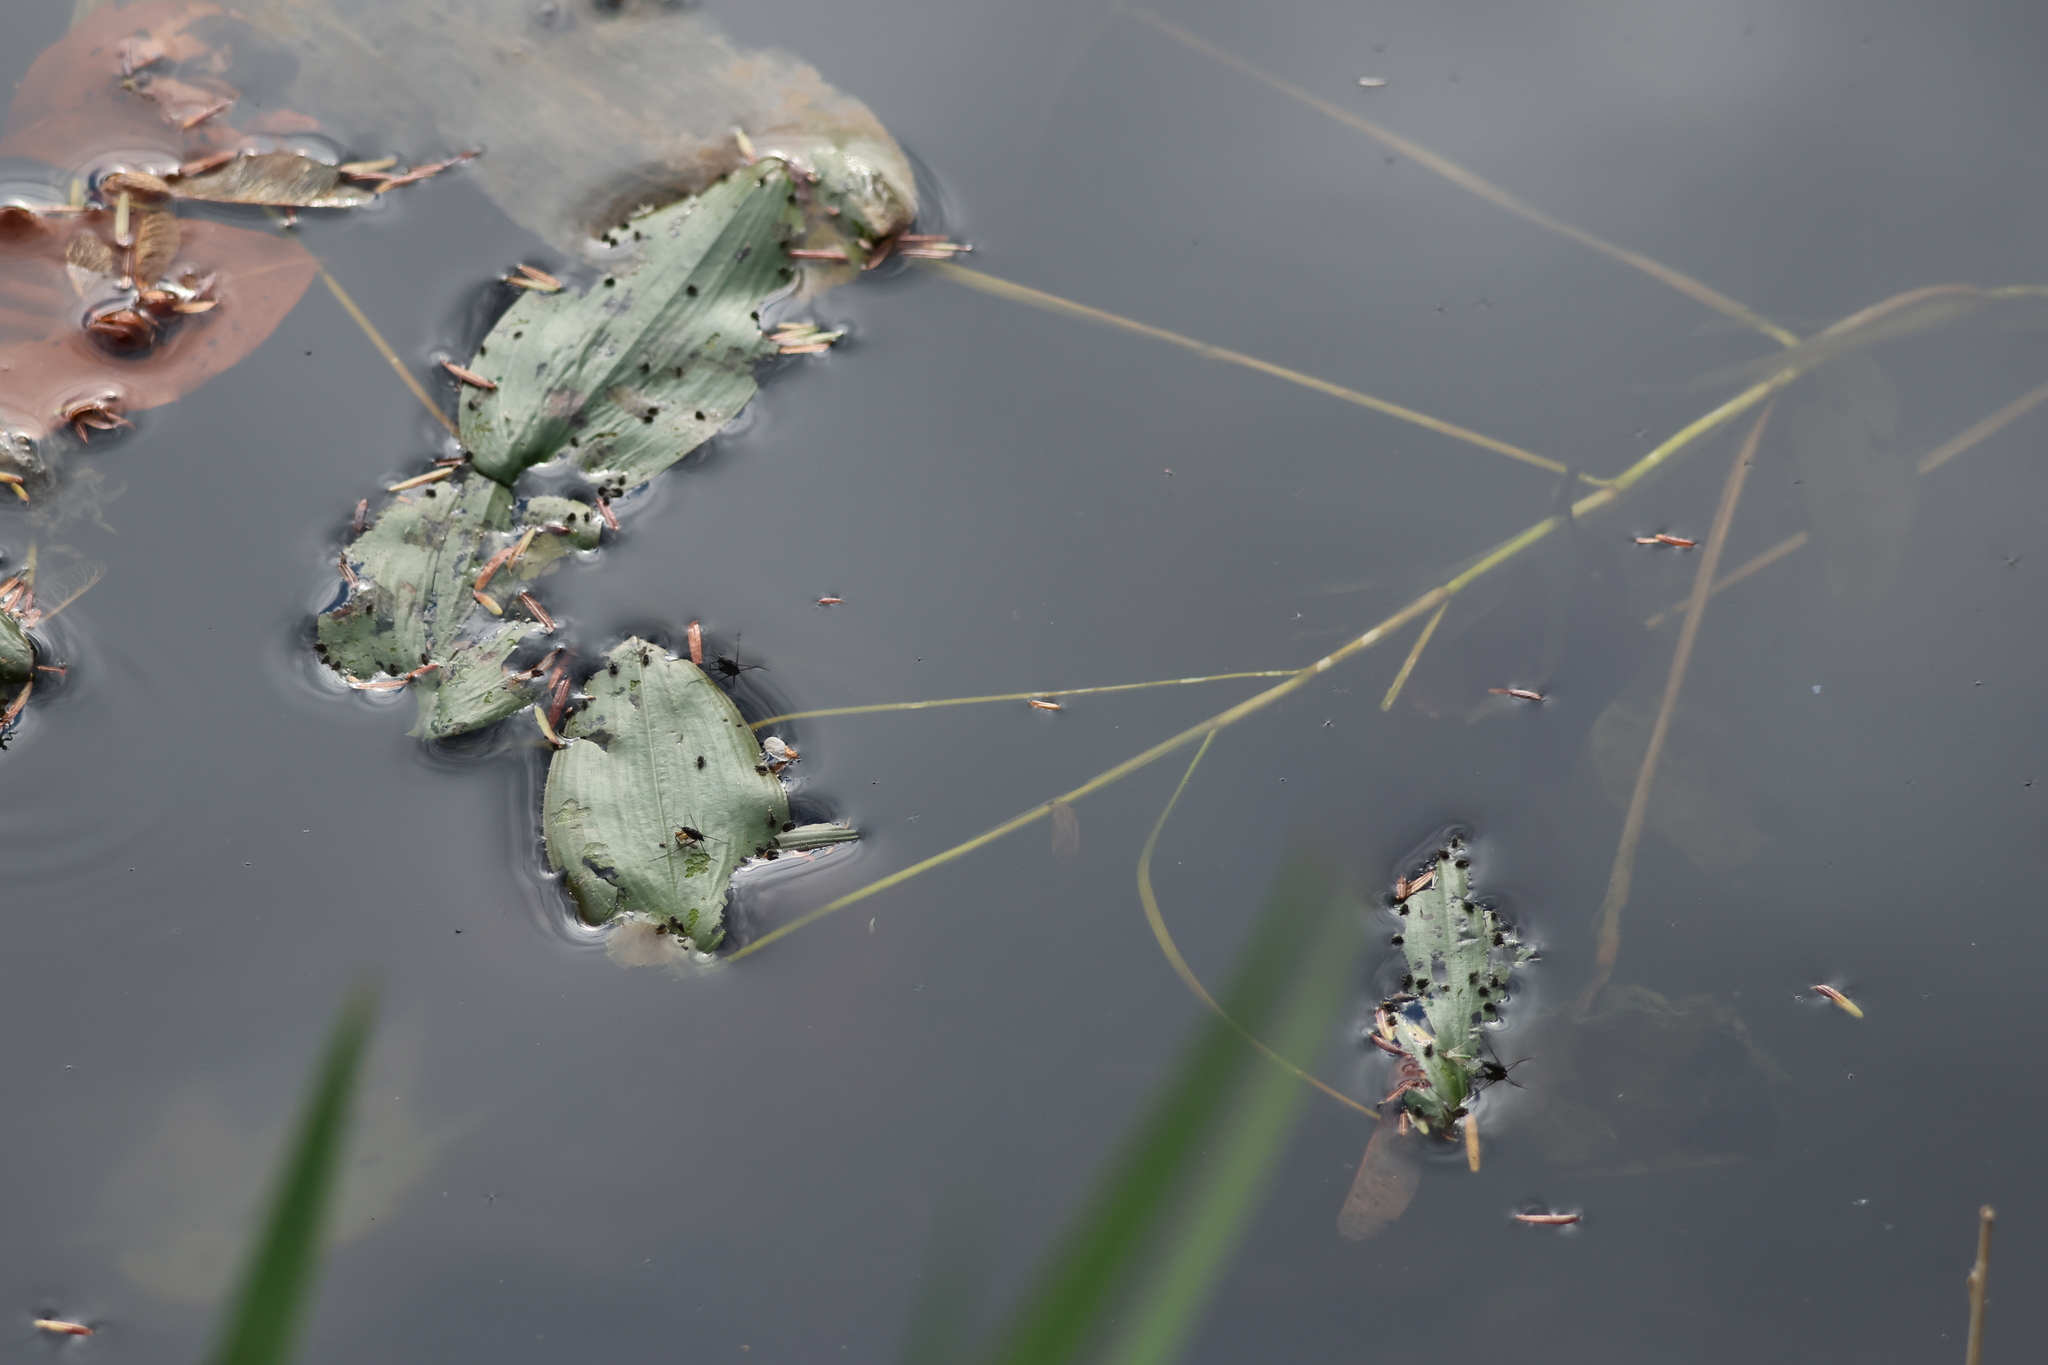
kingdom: Plantae
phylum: Tracheophyta
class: Liliopsida
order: Alismatales
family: Potamogetonaceae
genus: Potamogeton
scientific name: Potamogeton natans
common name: Broad-leaved pondweed
